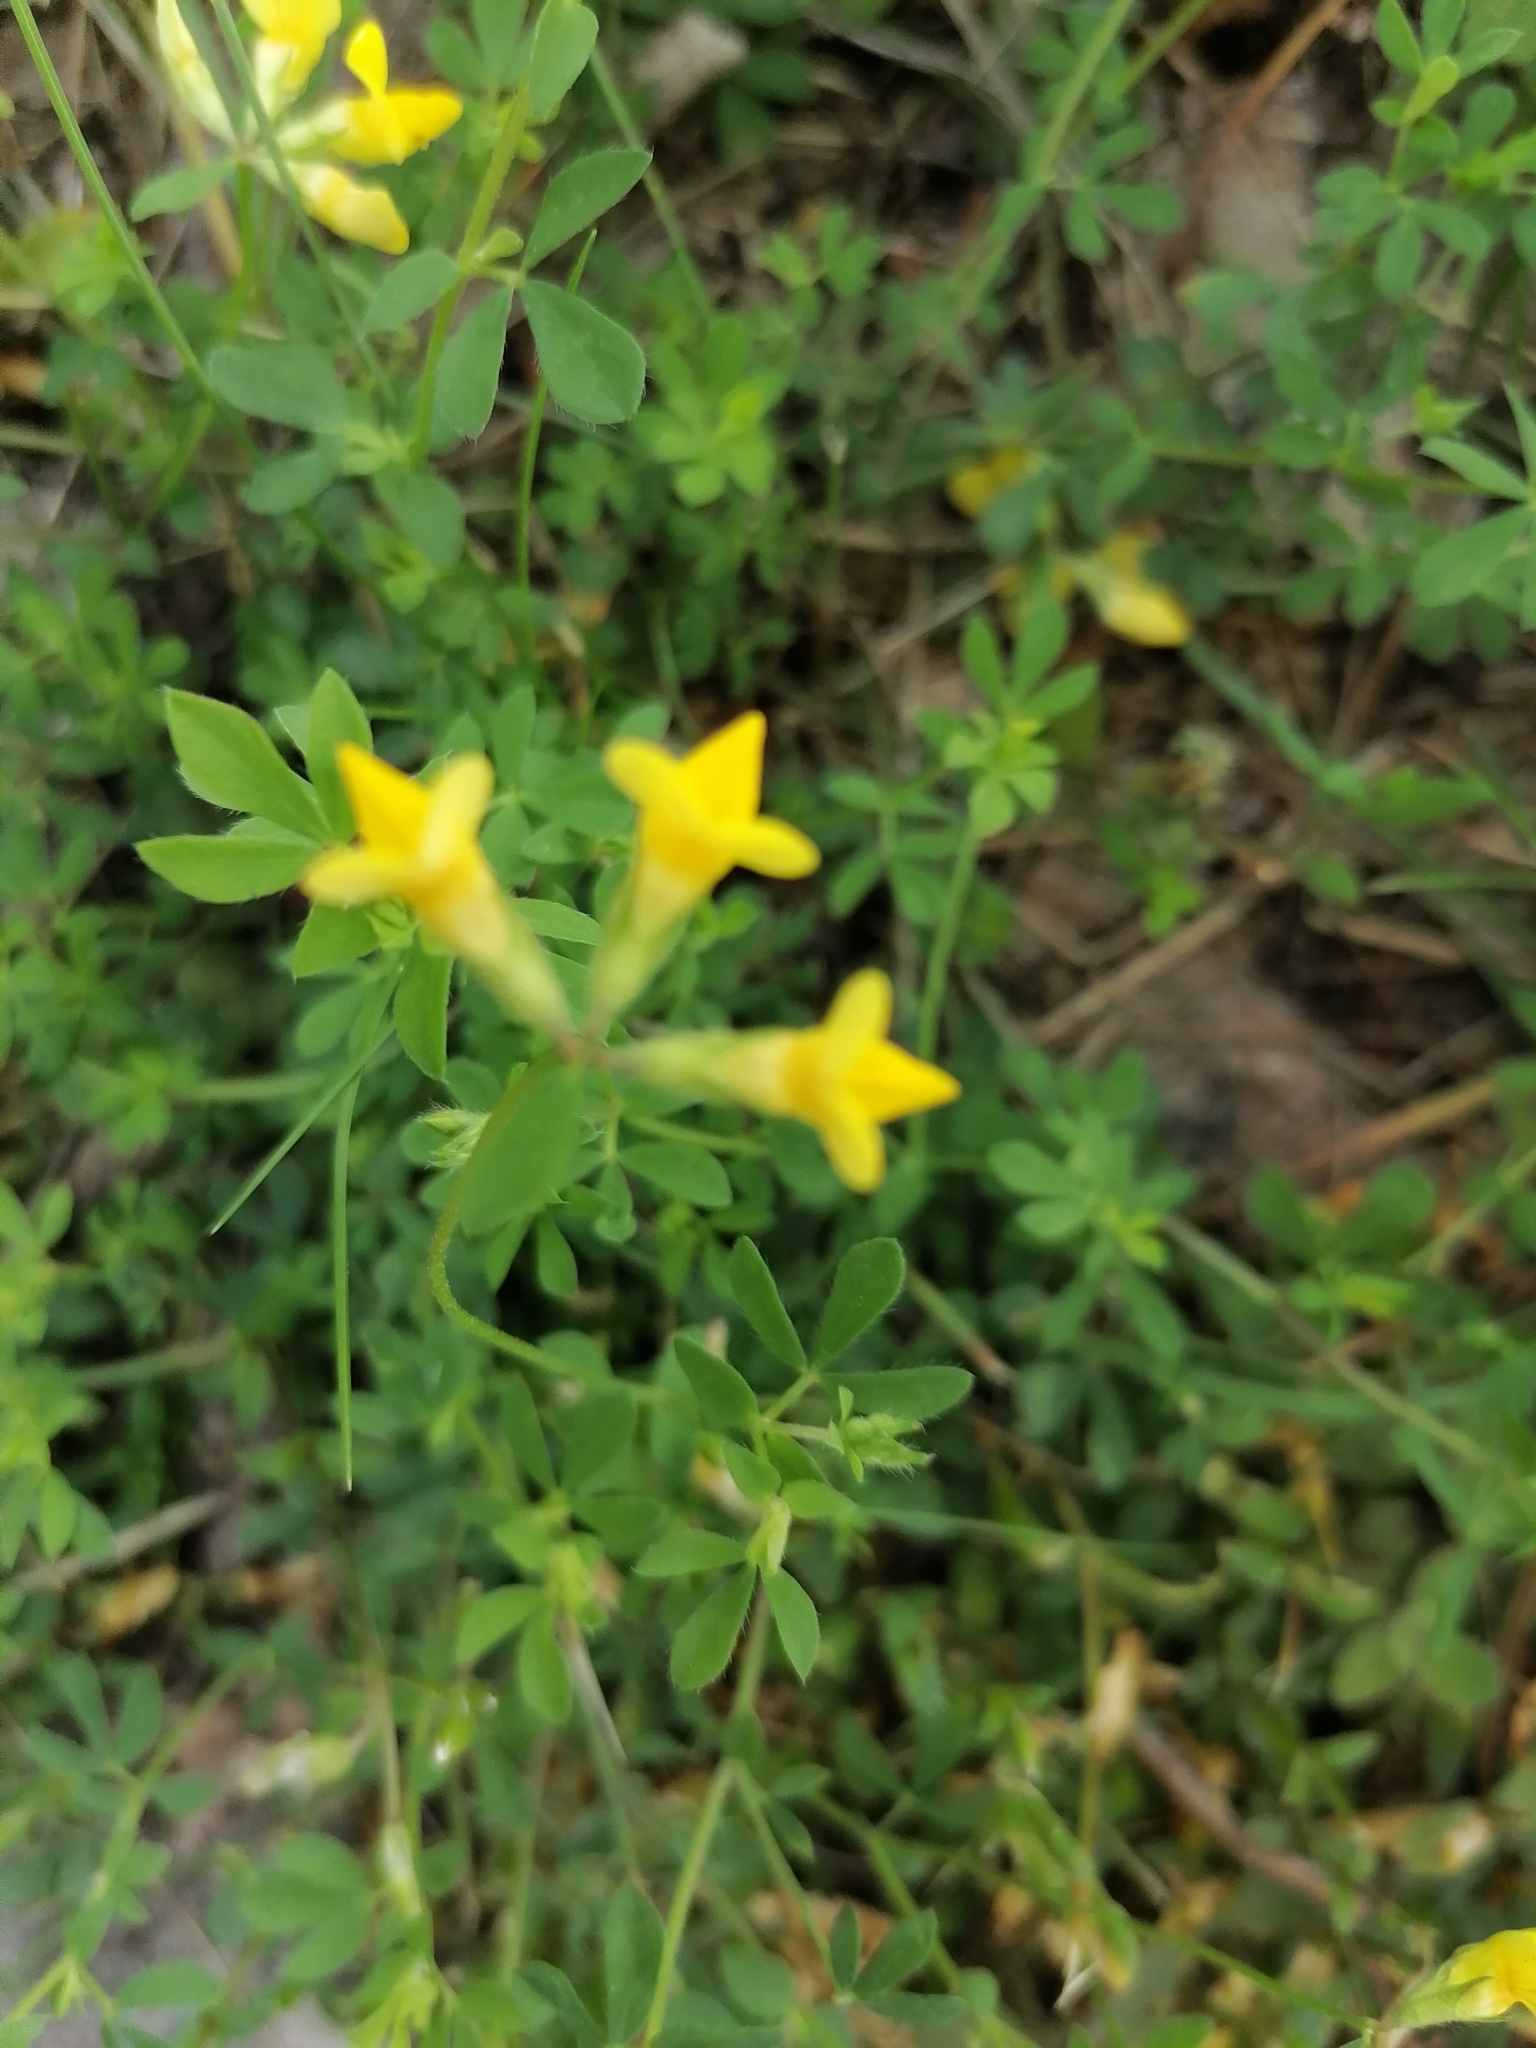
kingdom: Plantae
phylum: Tracheophyta
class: Magnoliopsida
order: Fabales
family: Fabaceae
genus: Lotus
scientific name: Lotus corniculatus
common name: Common bird's-foot-trefoil
